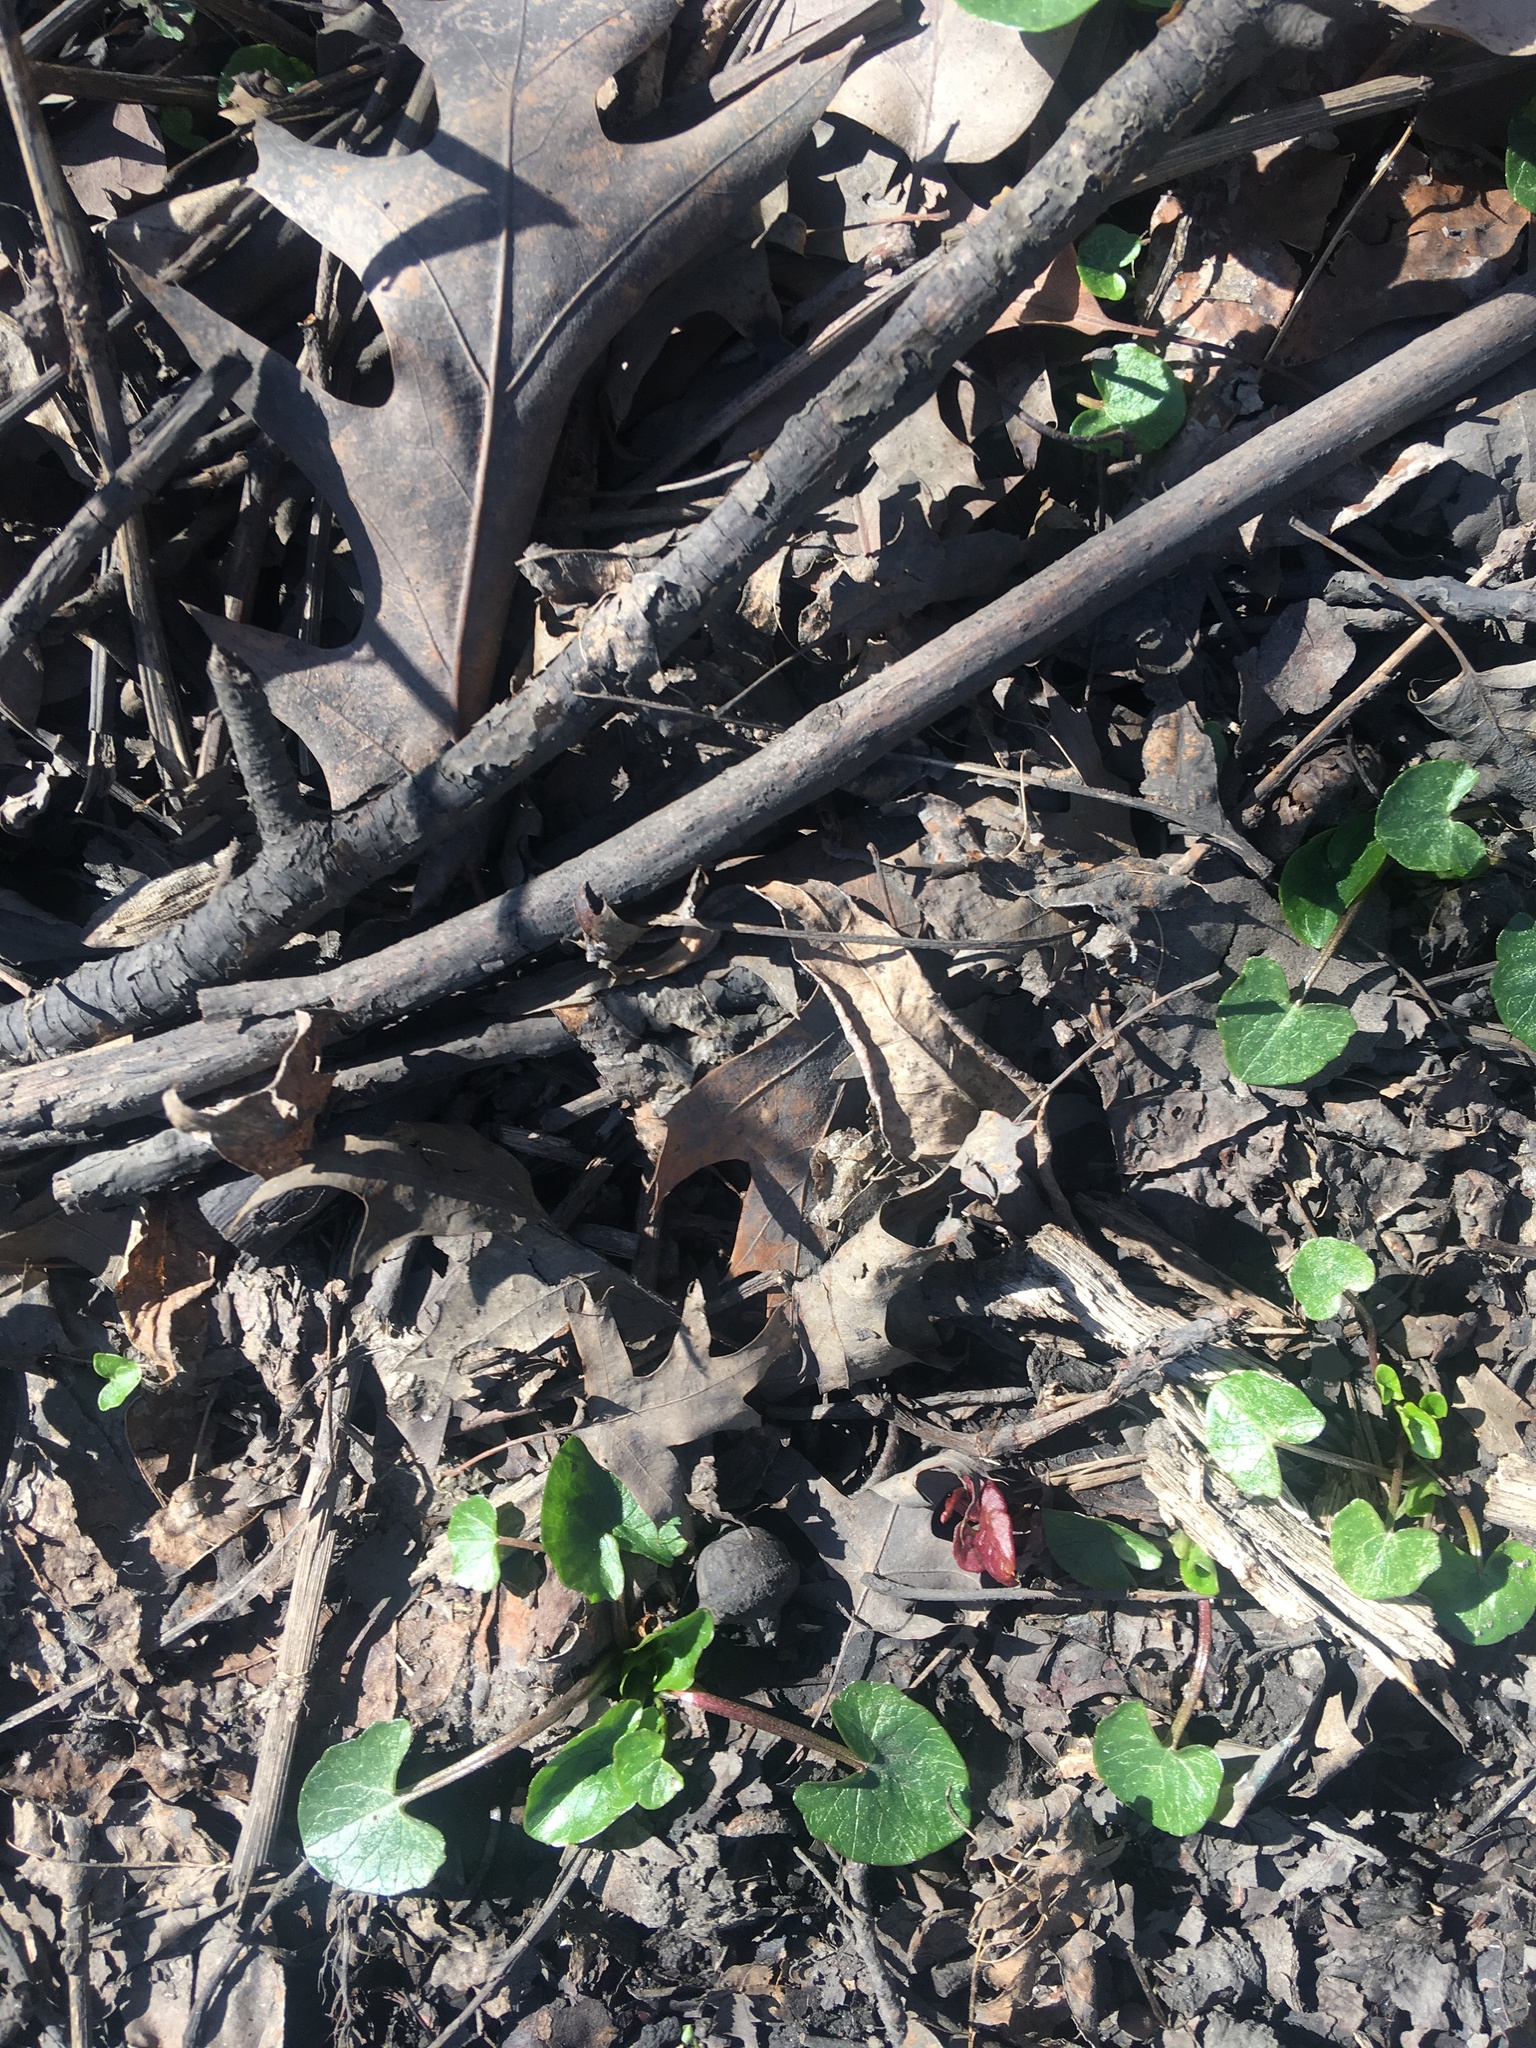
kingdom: Plantae
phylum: Tracheophyta
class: Magnoliopsida
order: Ranunculales
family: Ranunculaceae
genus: Ficaria
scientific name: Ficaria verna
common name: Lesser celandine
